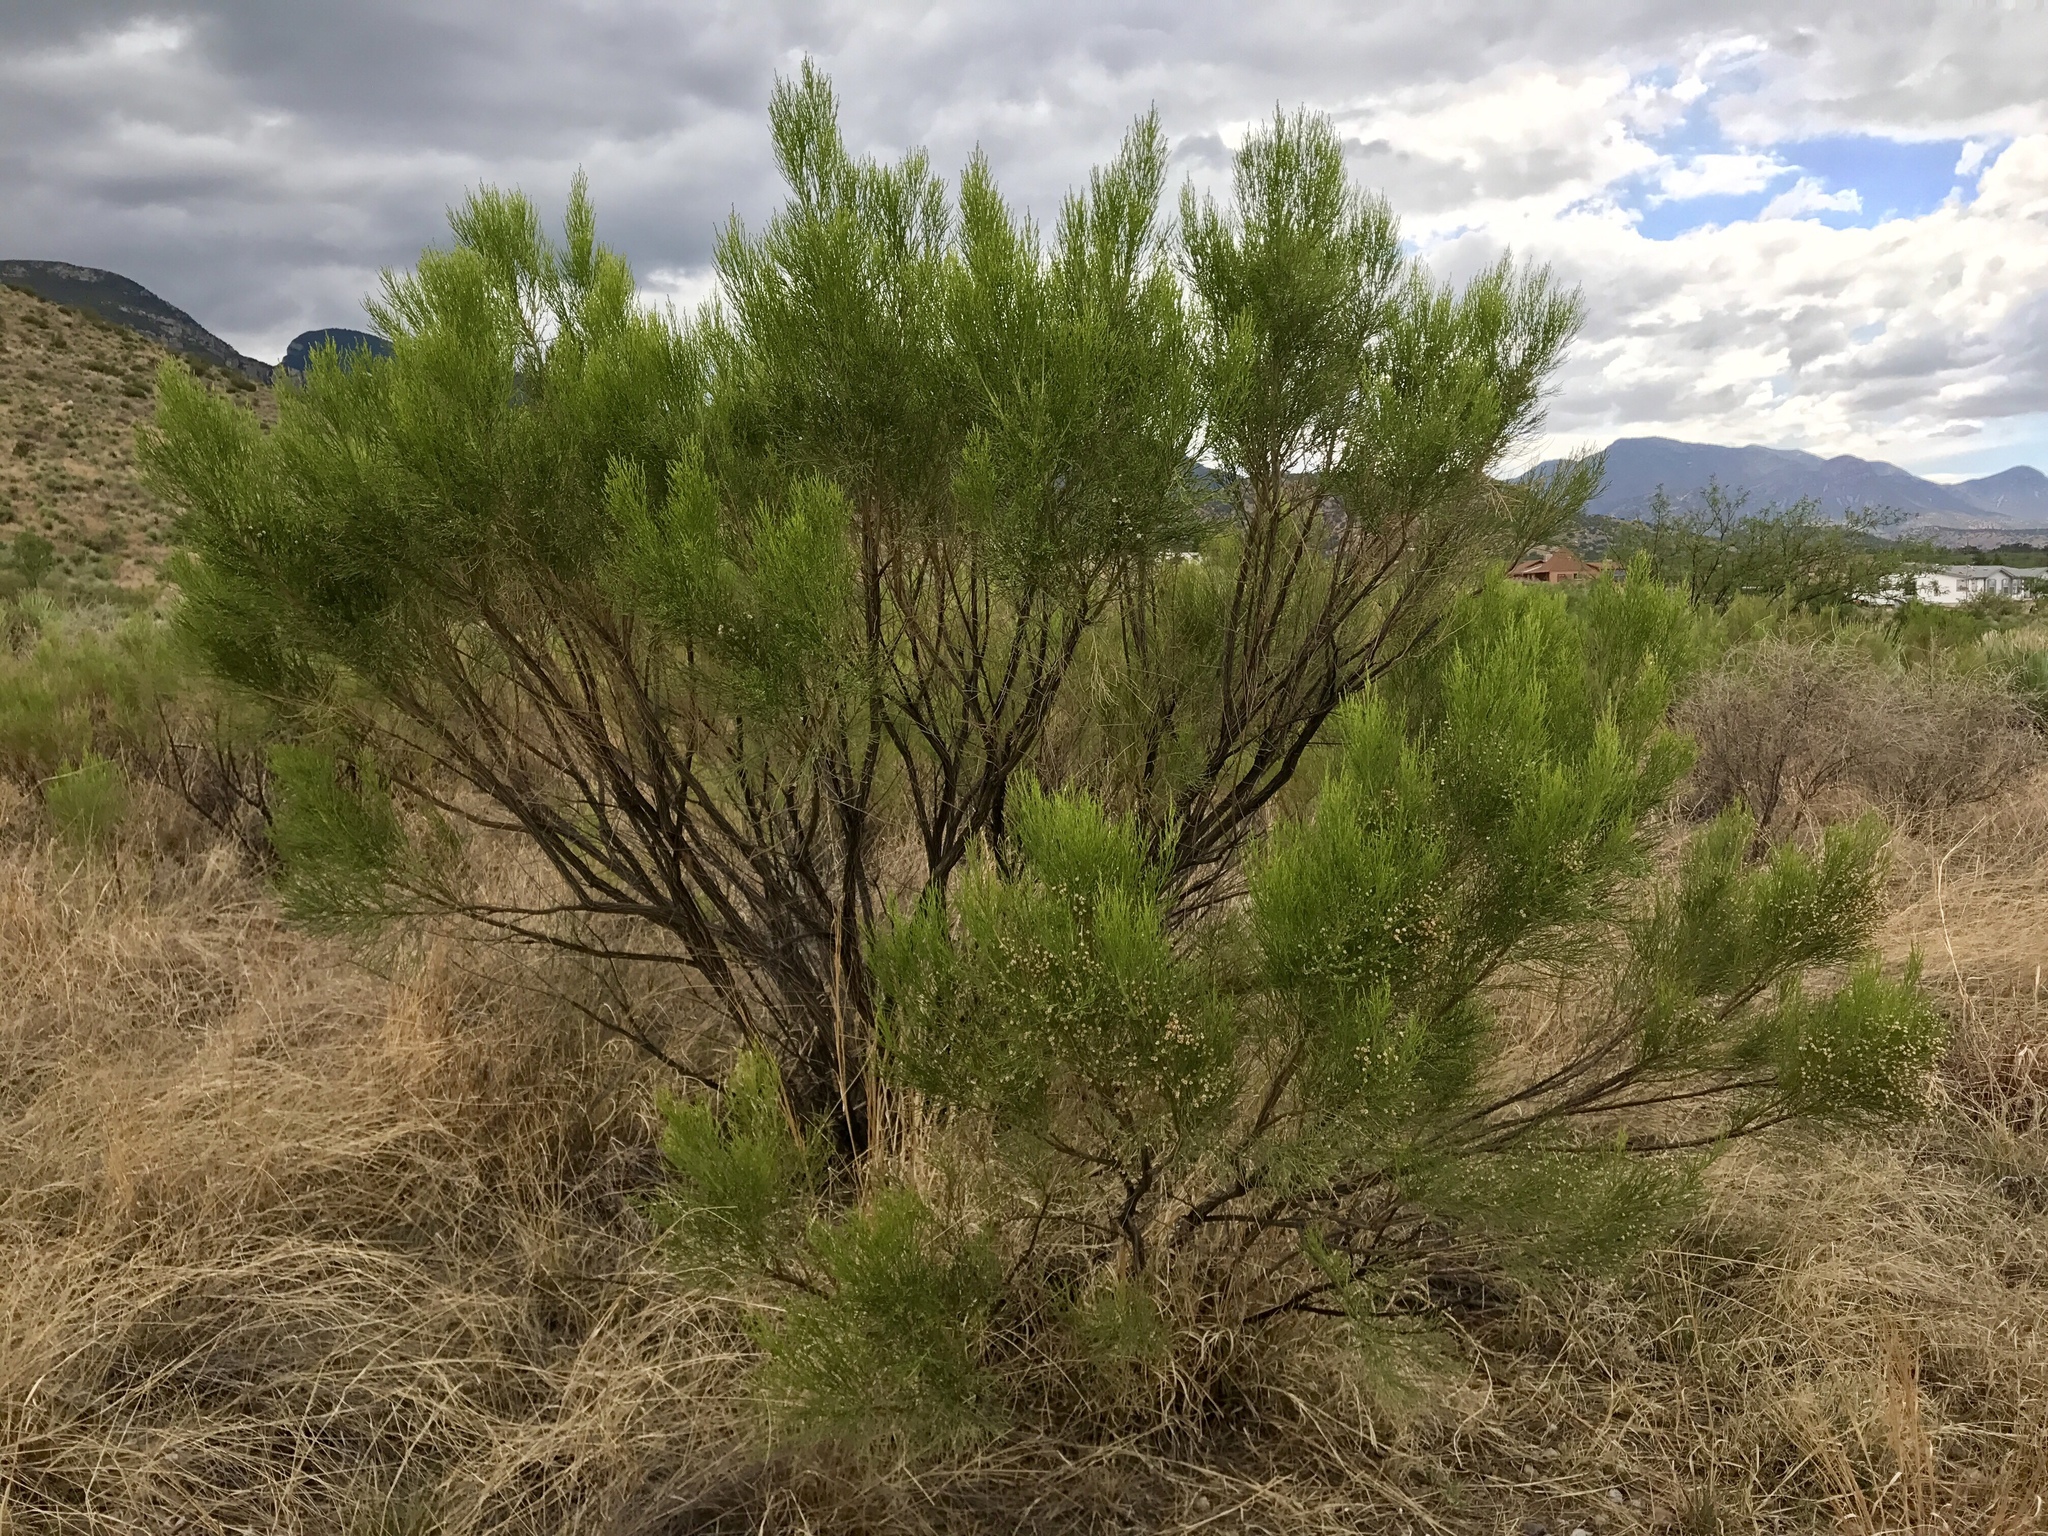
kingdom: Plantae
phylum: Tracheophyta
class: Magnoliopsida
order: Asterales
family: Asteraceae
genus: Baccharis
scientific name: Baccharis sarothroides
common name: Desert-broom
